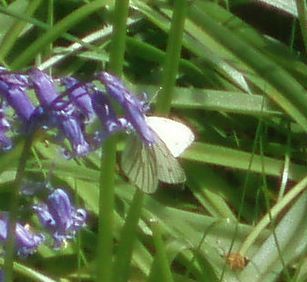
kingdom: Animalia
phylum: Arthropoda
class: Insecta
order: Lepidoptera
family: Pieridae
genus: Pieris
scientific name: Pieris napi
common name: Green-veined white
